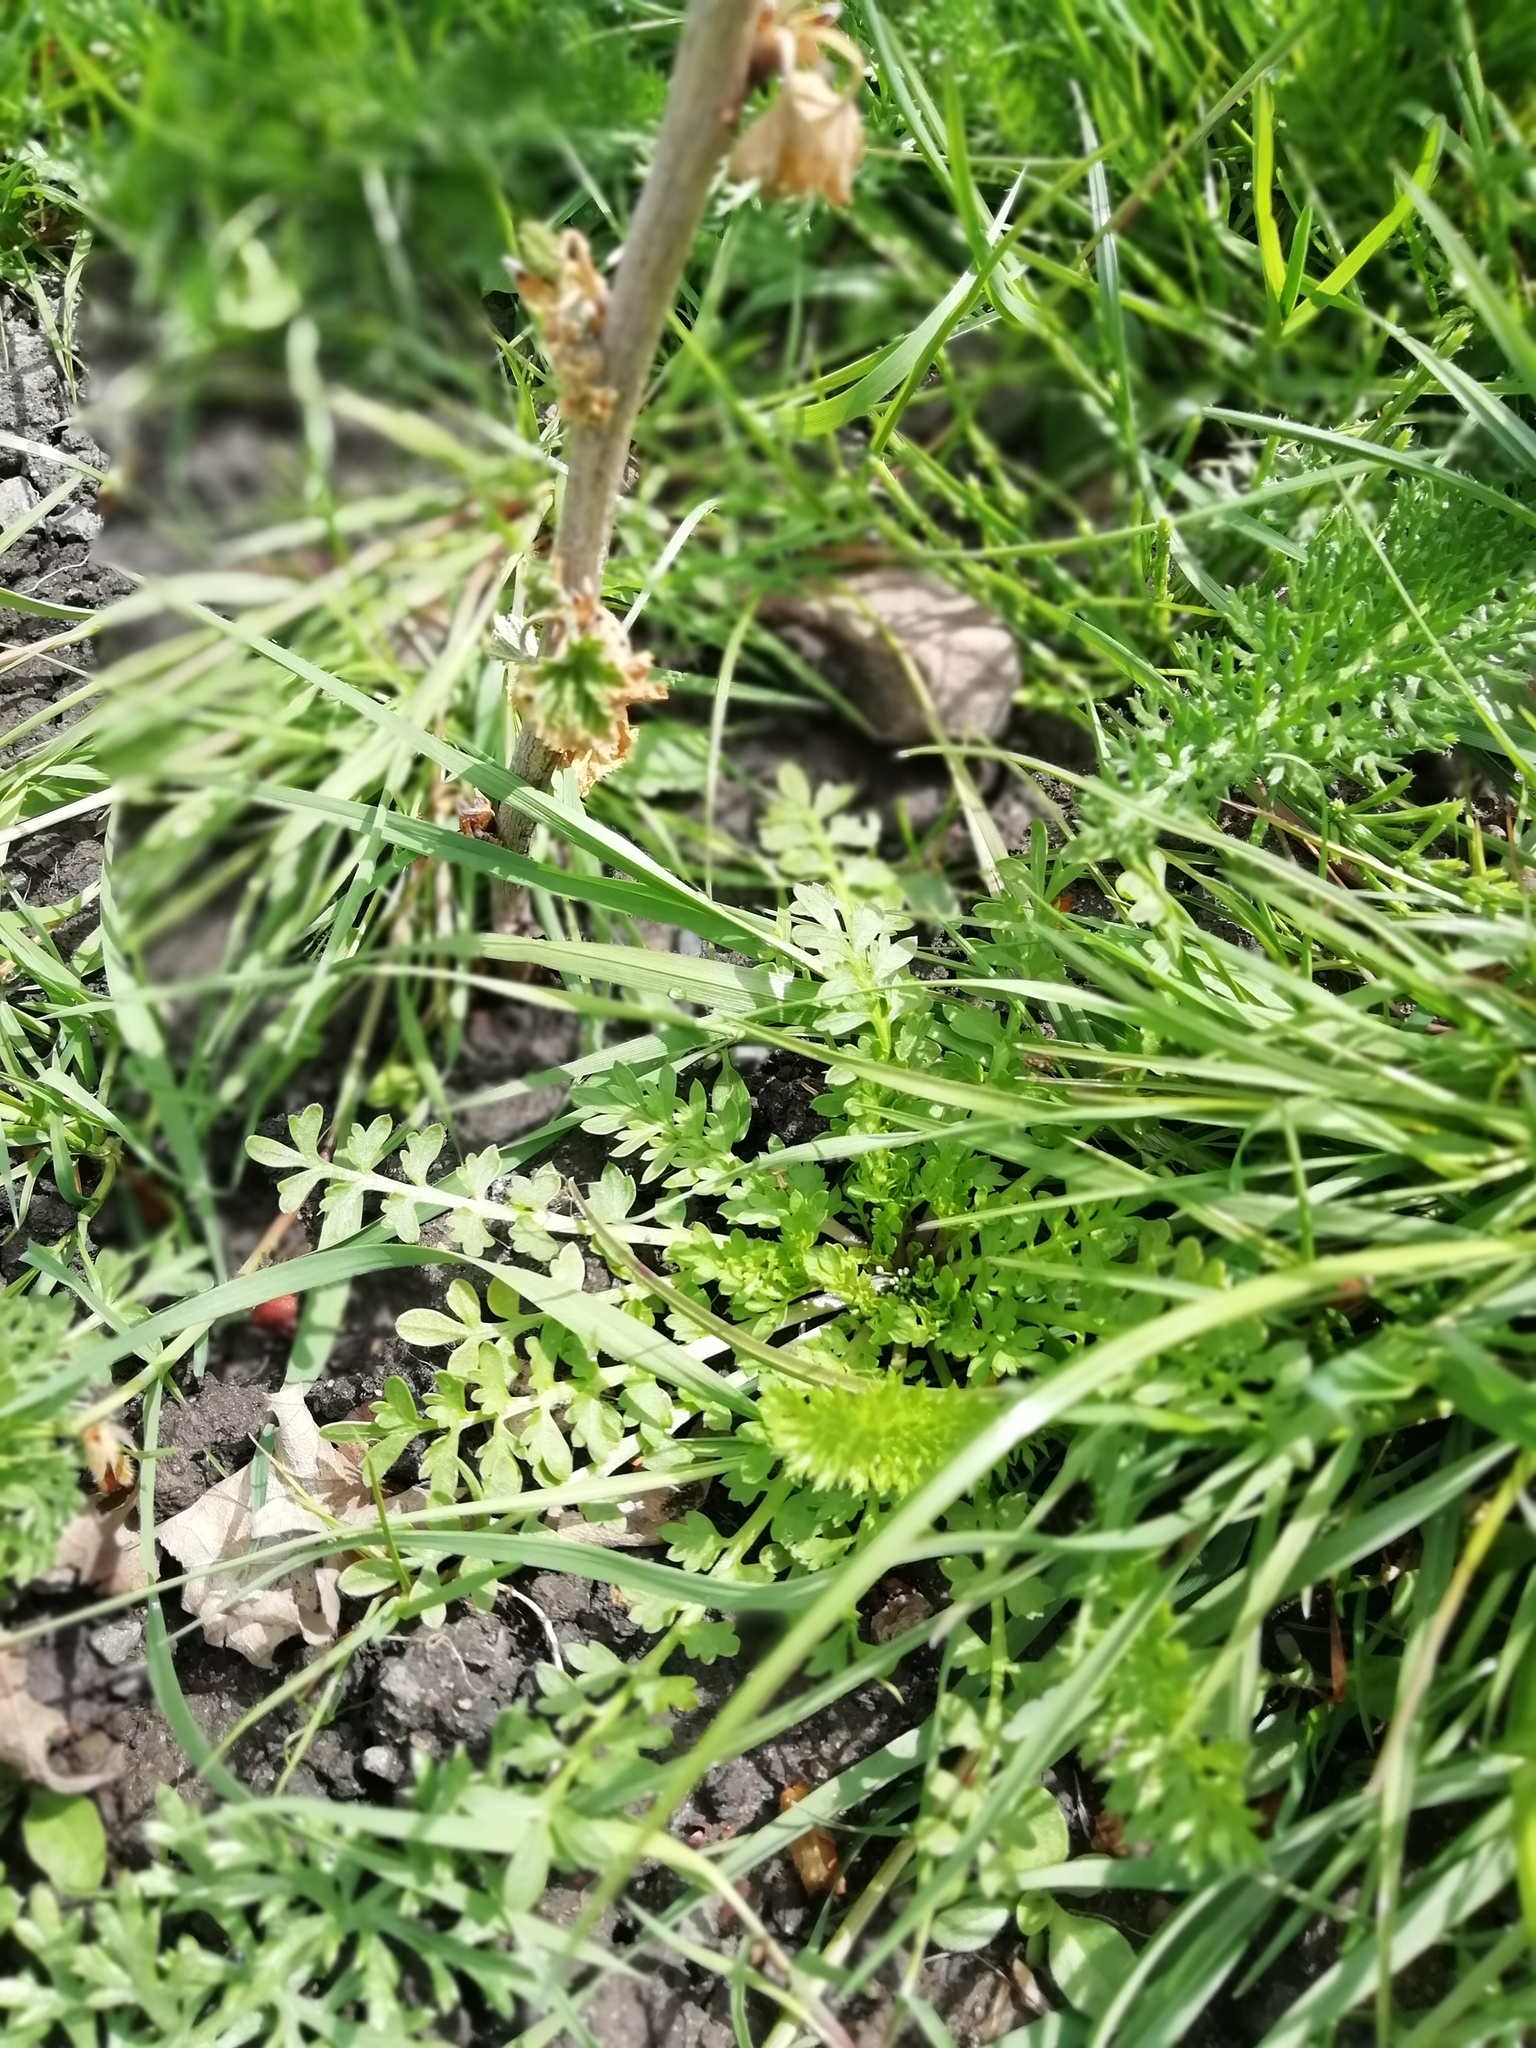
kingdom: Plantae
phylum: Tracheophyta
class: Magnoliopsida
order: Brassicales
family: Brassicaceae
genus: Lepidium
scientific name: Lepidium didymum
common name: Lesser swinecress
